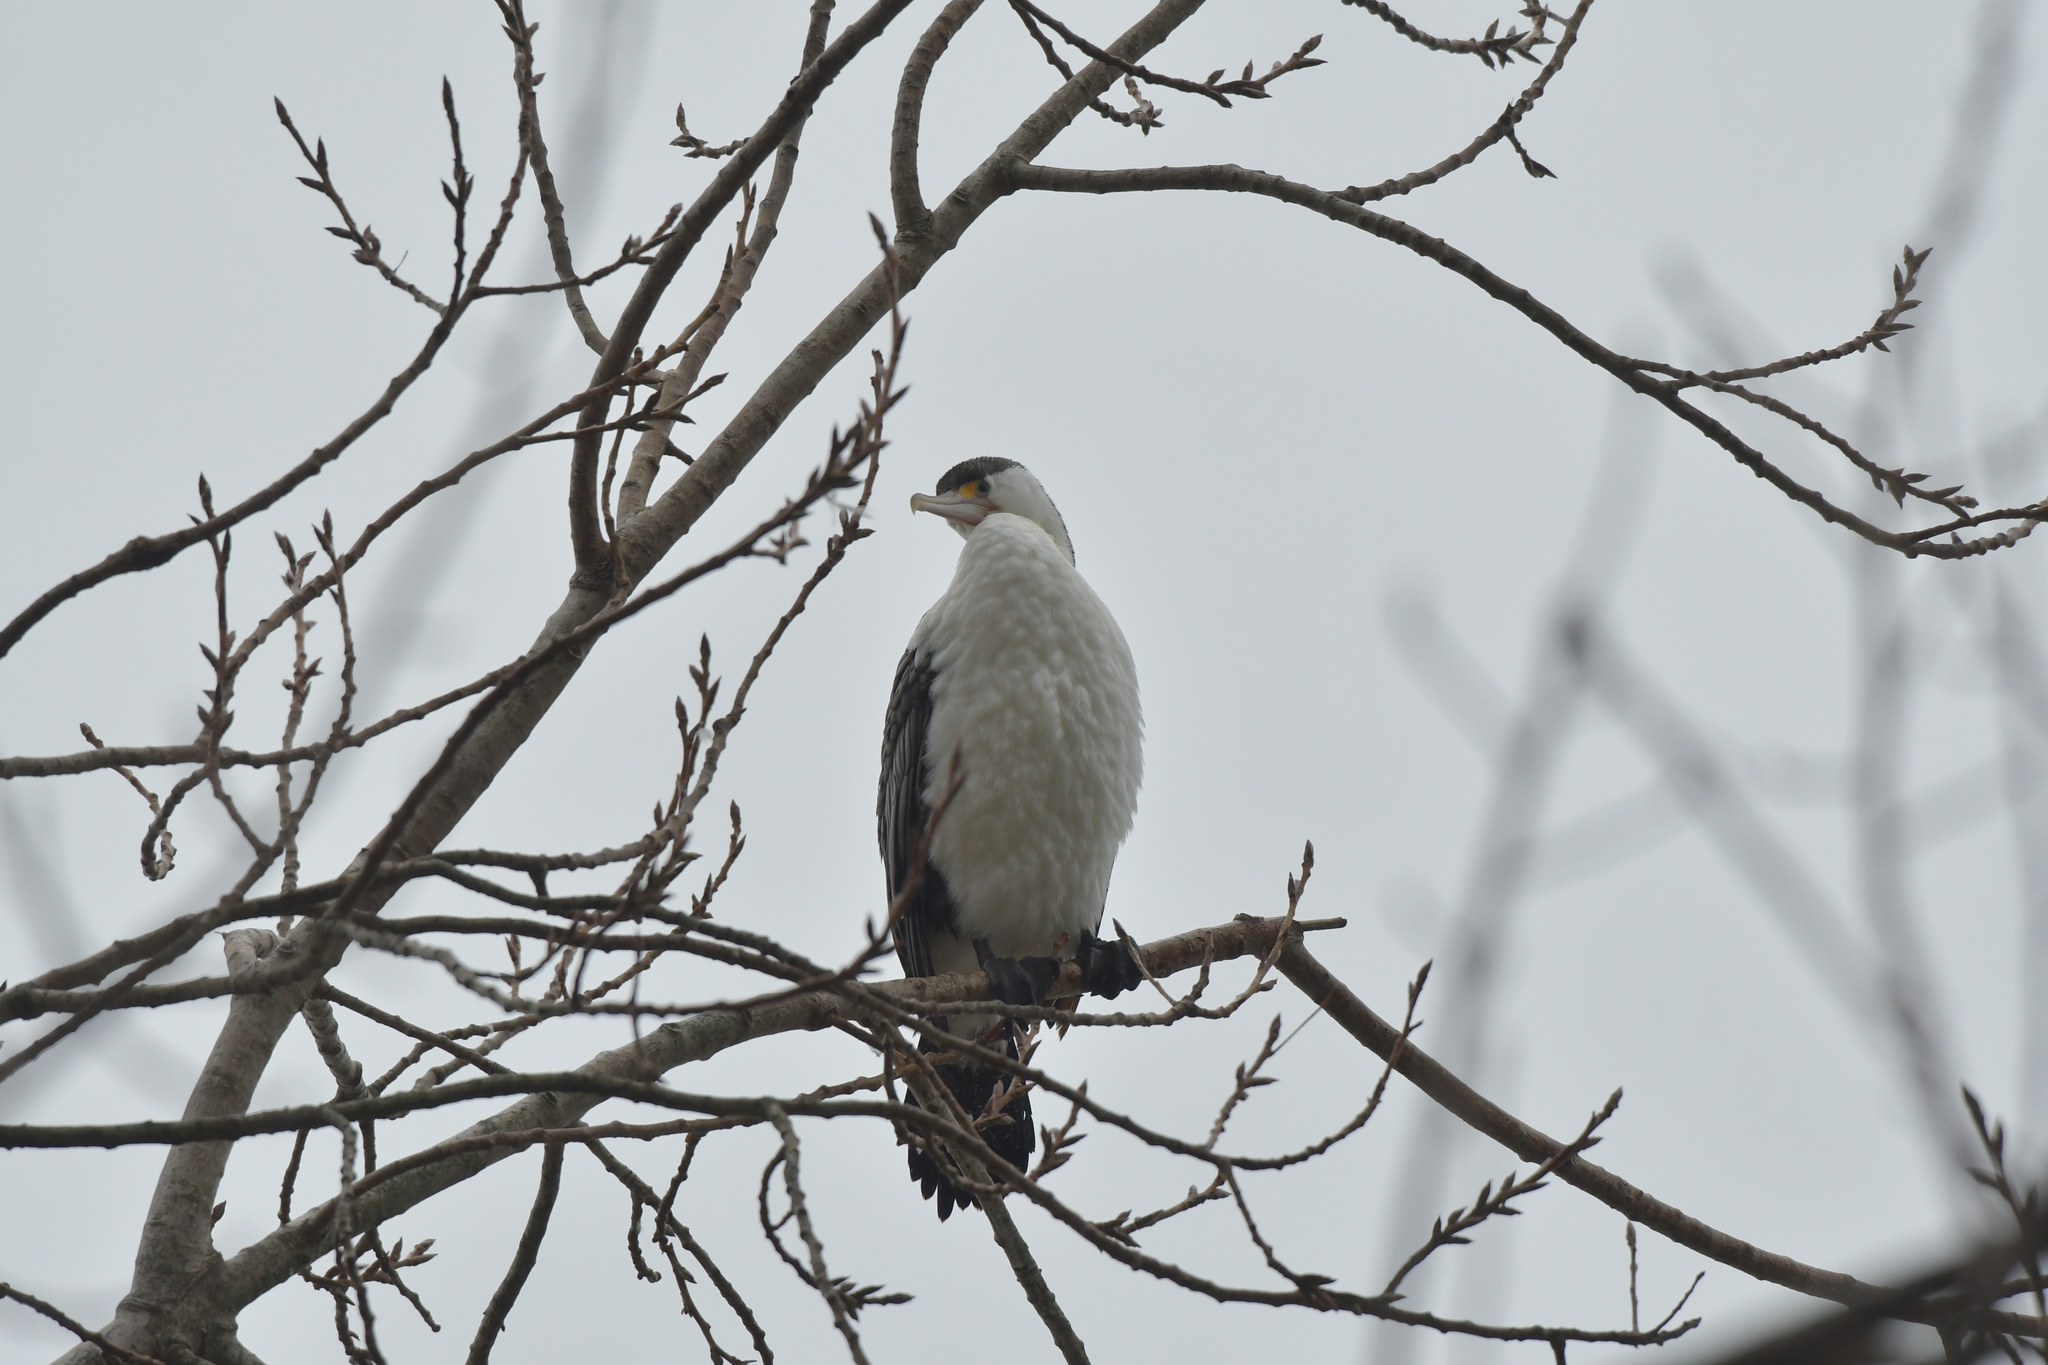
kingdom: Animalia
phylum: Chordata
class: Aves
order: Suliformes
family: Phalacrocoracidae
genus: Phalacrocorax
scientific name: Phalacrocorax varius
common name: Pied cormorant
